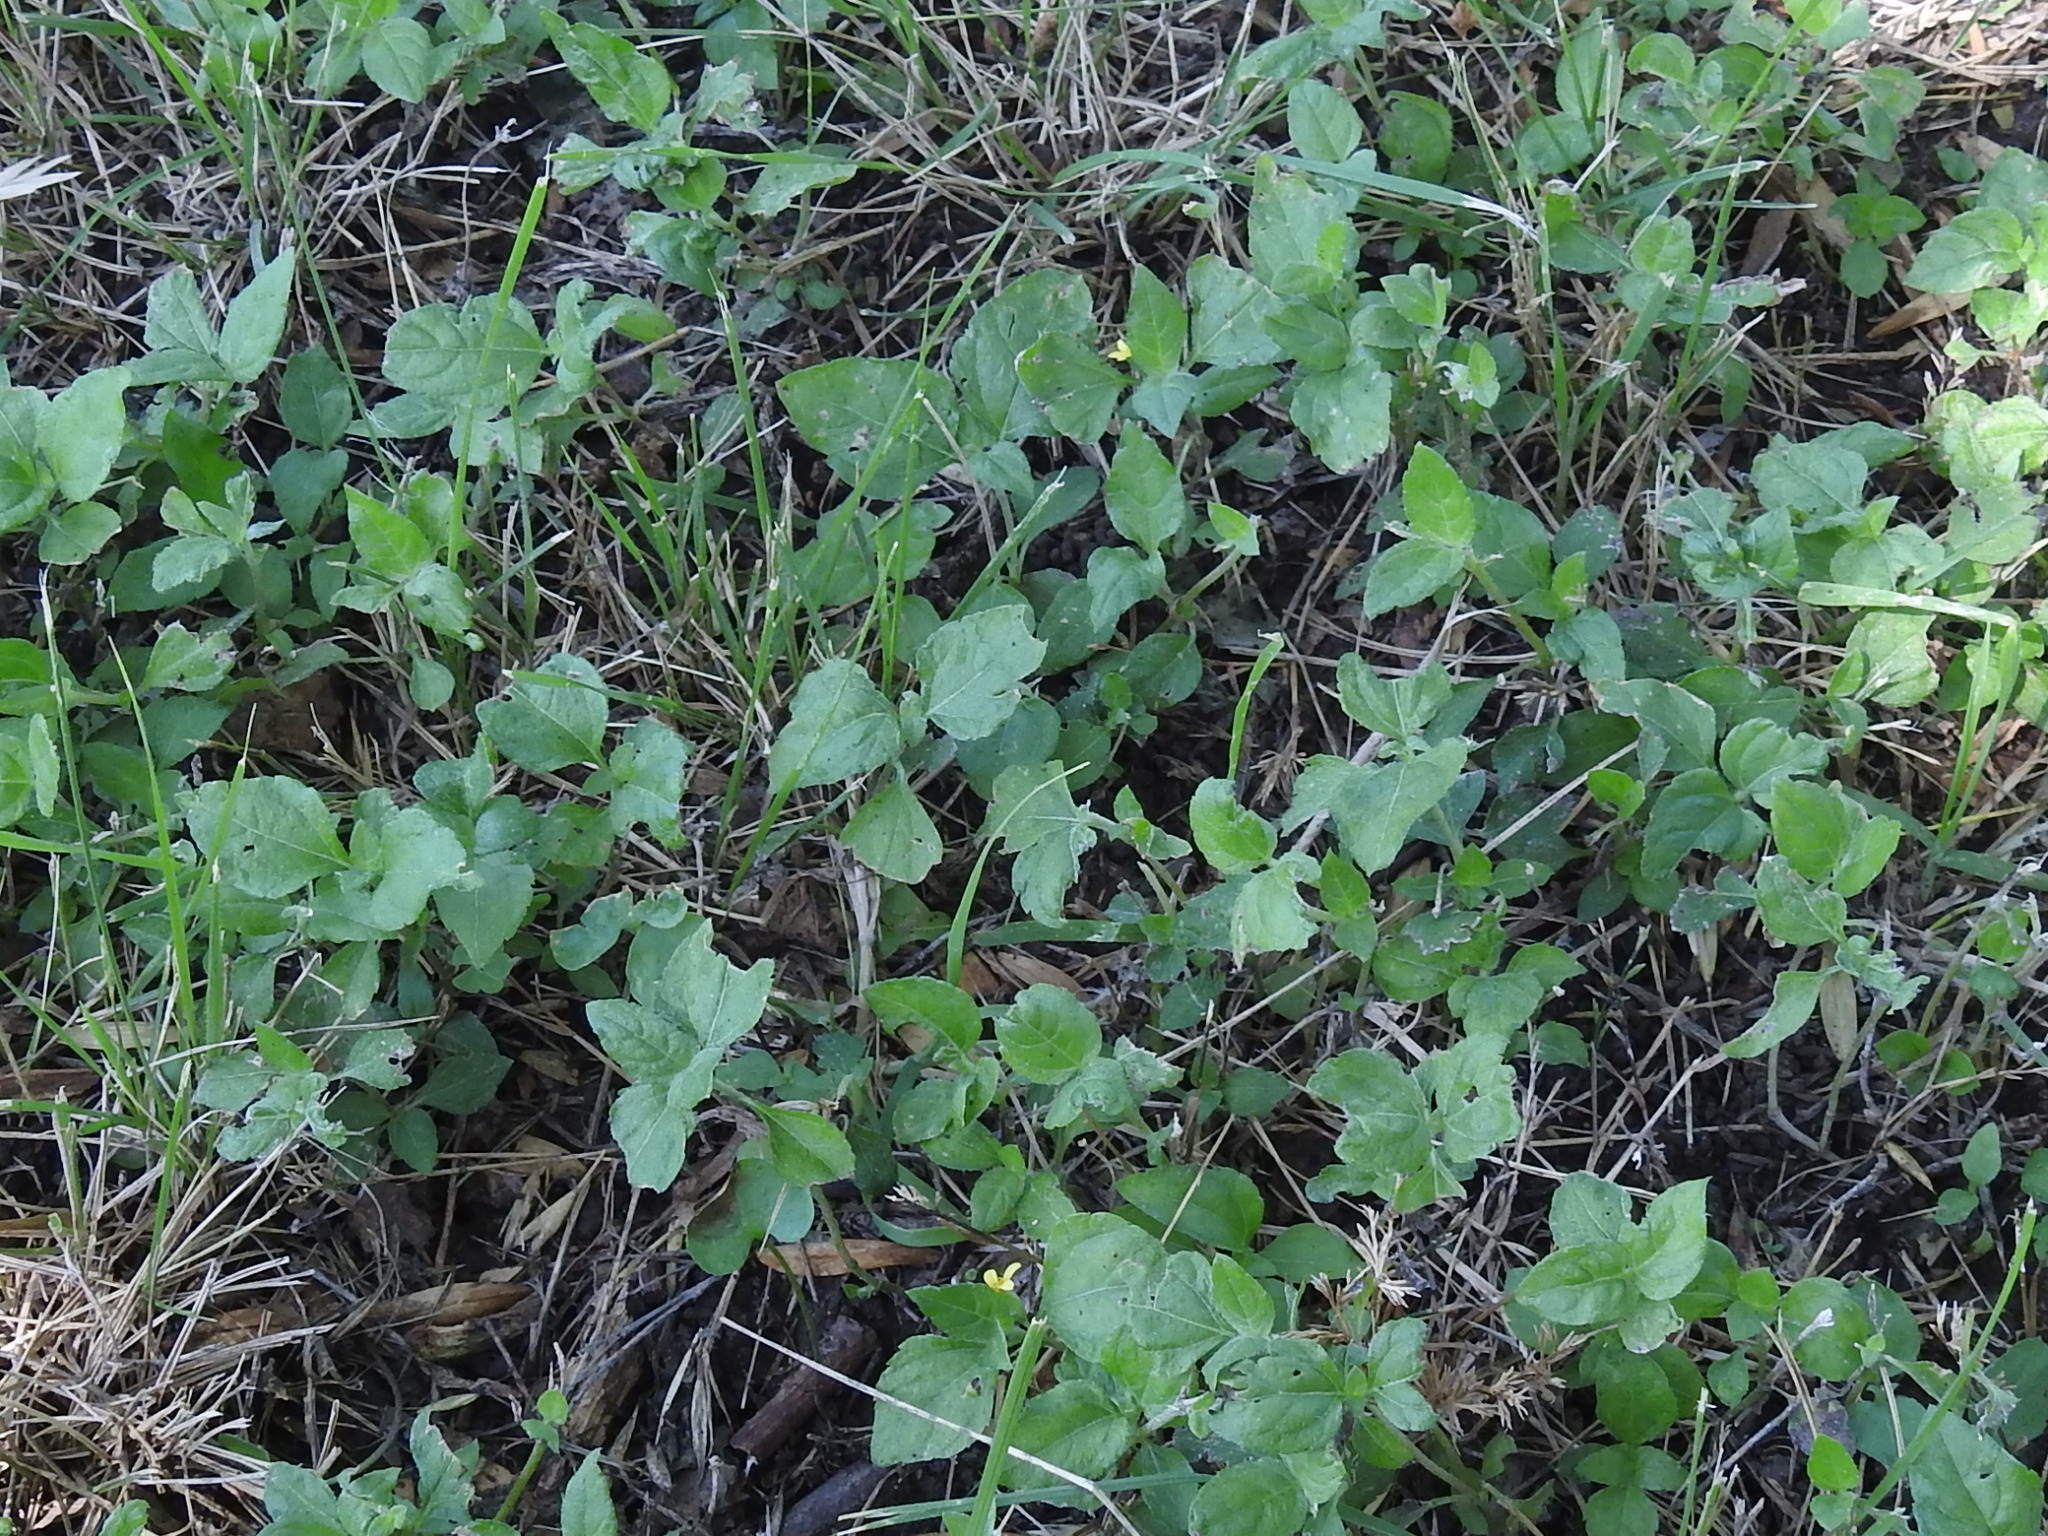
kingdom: Plantae
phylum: Tracheophyta
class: Magnoliopsida
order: Asterales
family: Asteraceae
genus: Calyptocarpus
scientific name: Calyptocarpus vialis
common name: Straggler daisy
